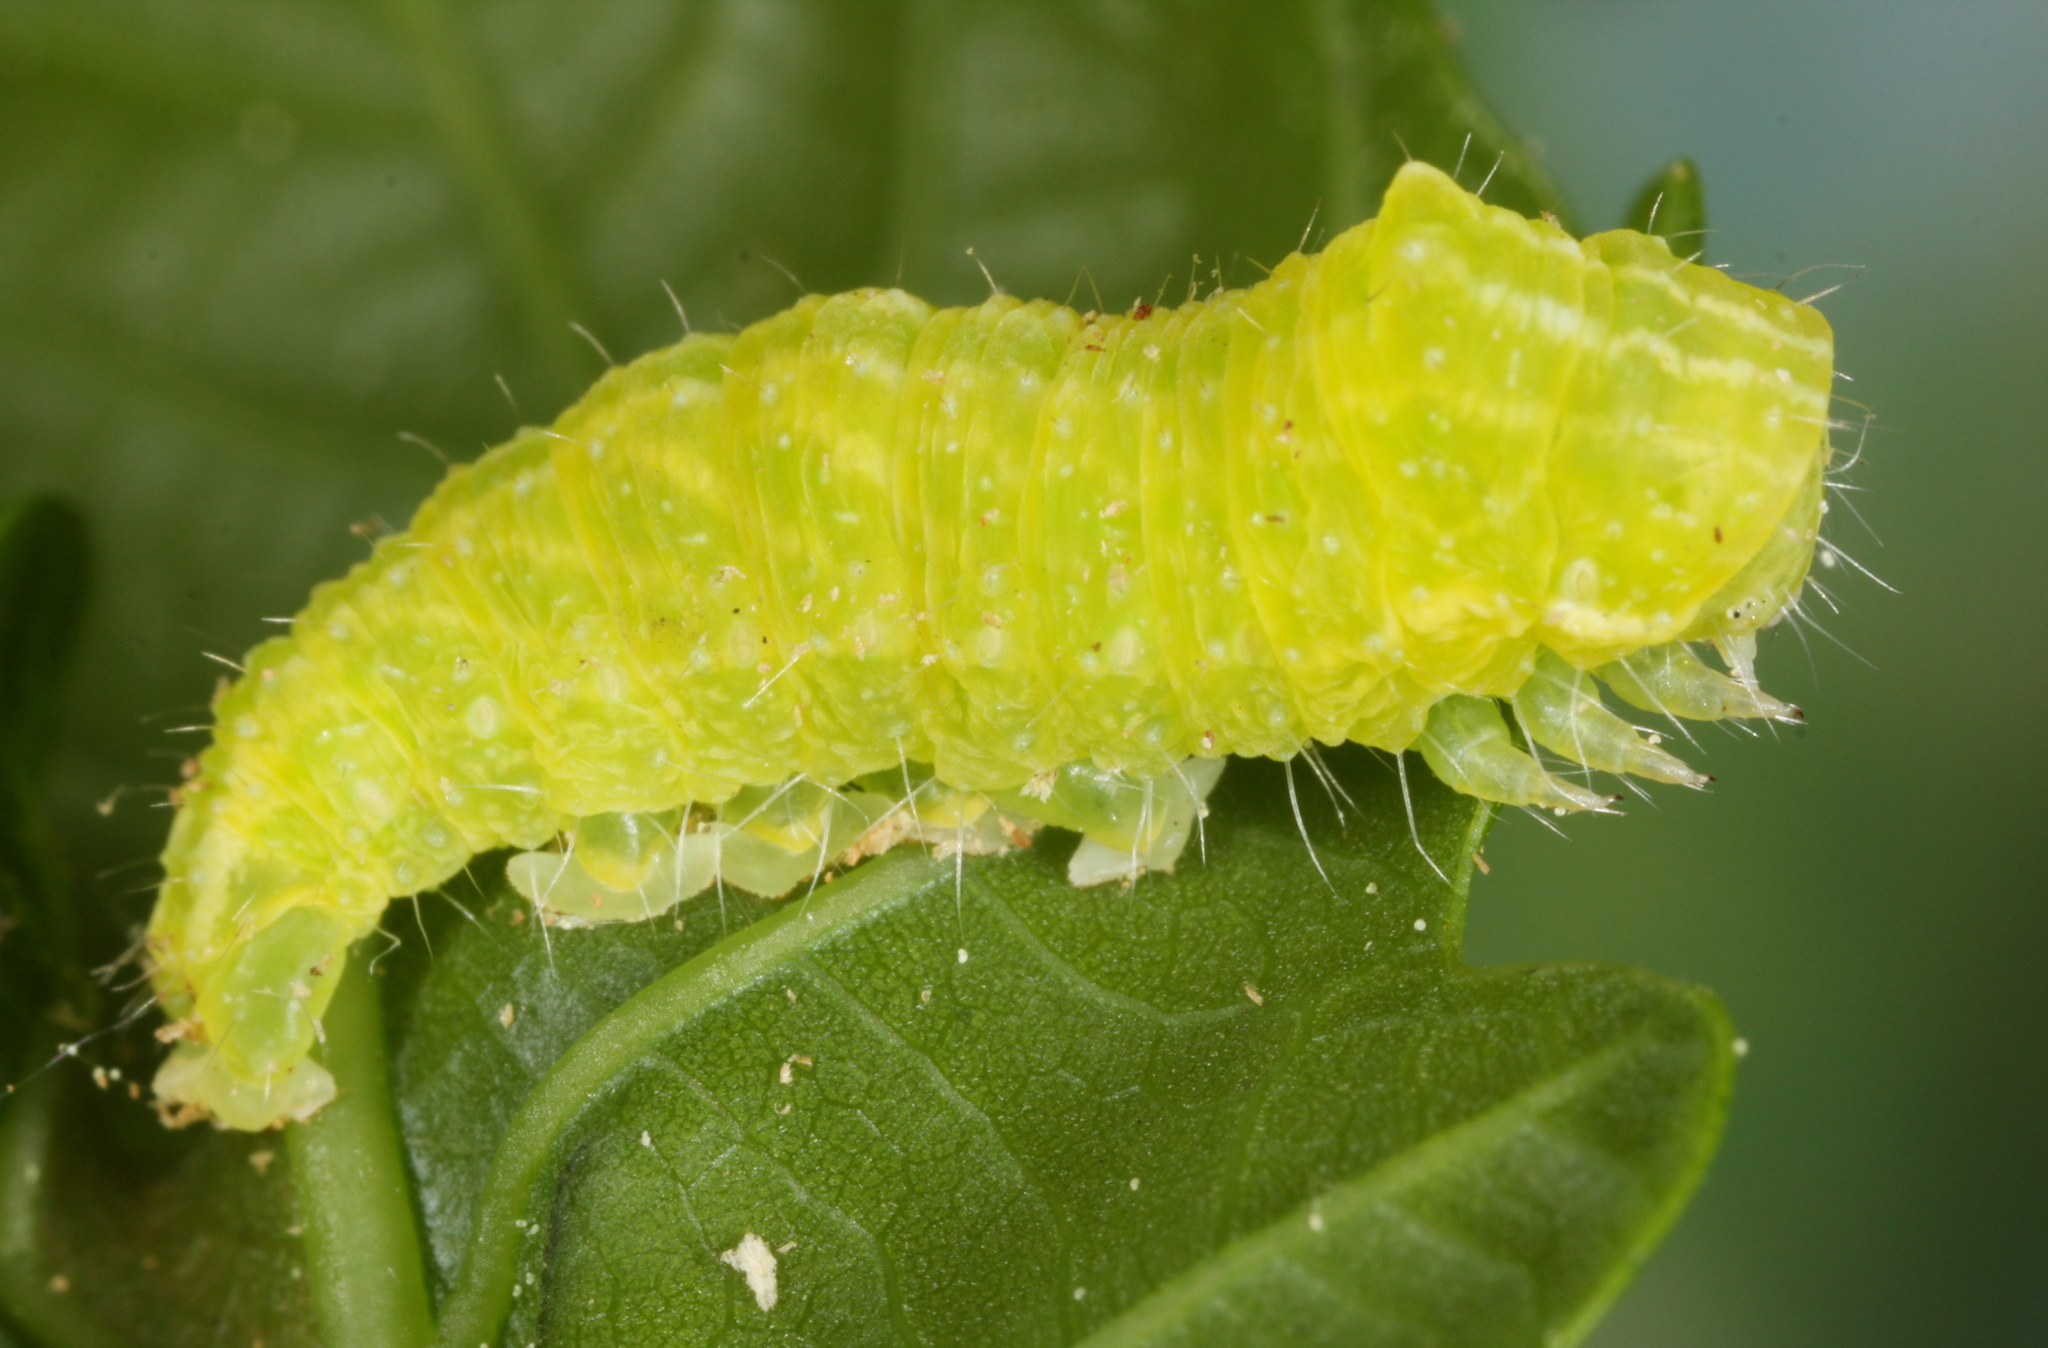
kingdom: Animalia
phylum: Arthropoda
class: Insecta
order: Lepidoptera
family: Nolidae
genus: Bena
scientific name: Bena bicolorana
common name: Scarce silver-lines
